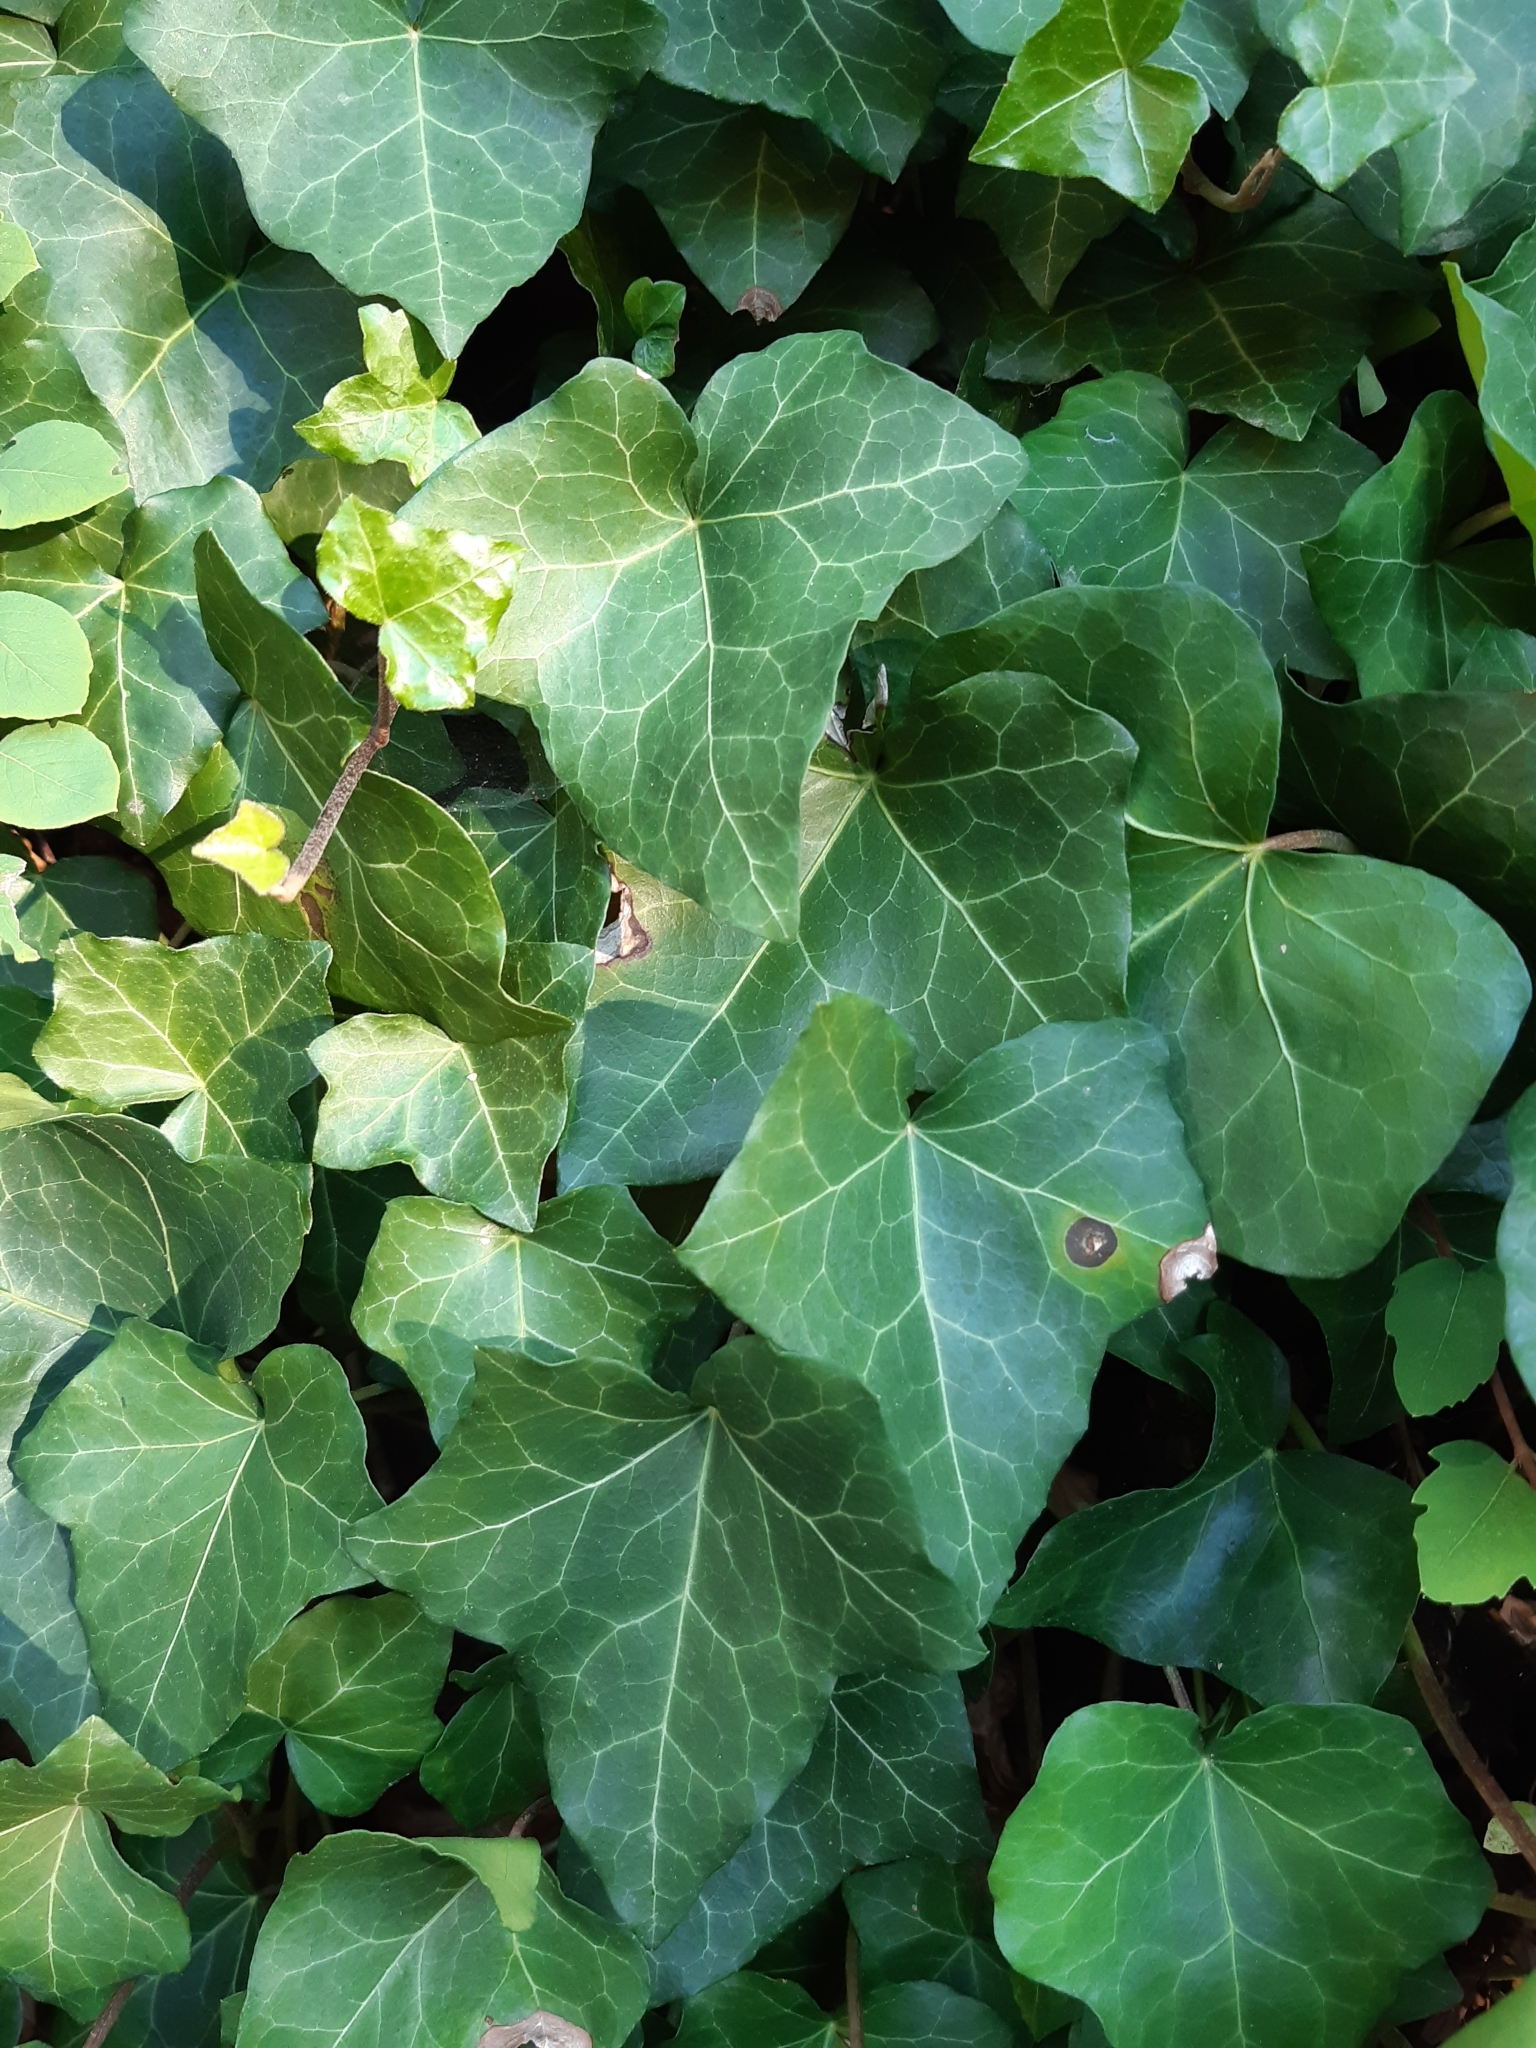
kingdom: Plantae
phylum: Tracheophyta
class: Magnoliopsida
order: Apiales
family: Araliaceae
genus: Hedera
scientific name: Hedera helix
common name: Ivy
